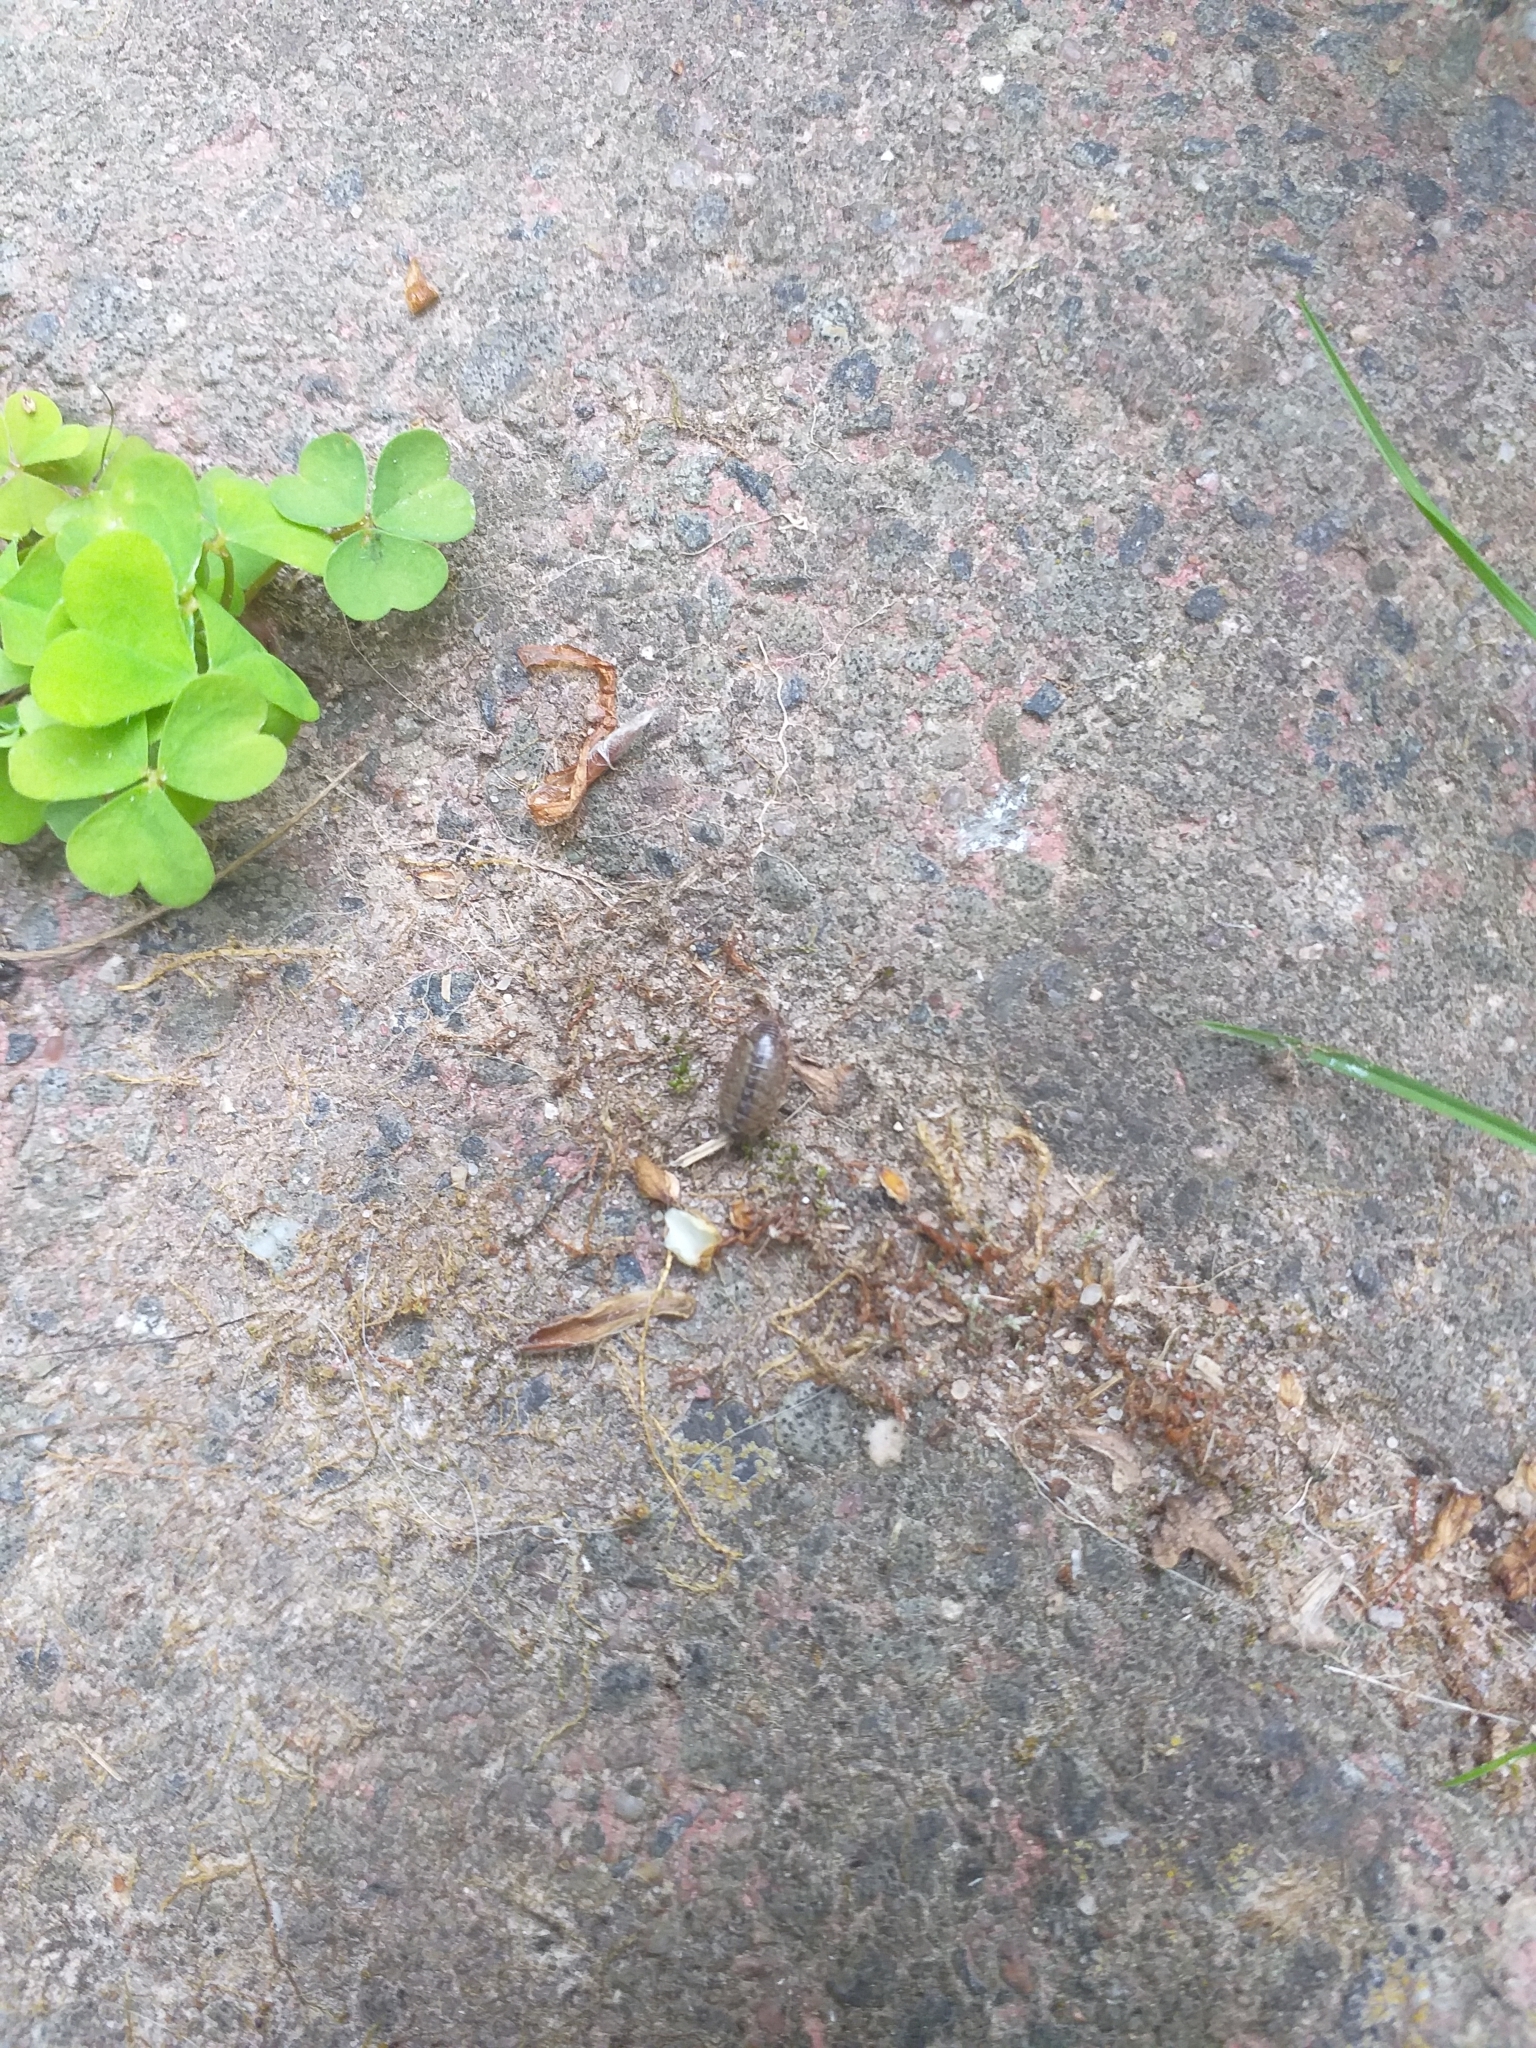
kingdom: Animalia
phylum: Arthropoda
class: Malacostraca
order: Isopoda
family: Philosciidae
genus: Philoscia
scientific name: Philoscia muscorum
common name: Common striped woodlouse
